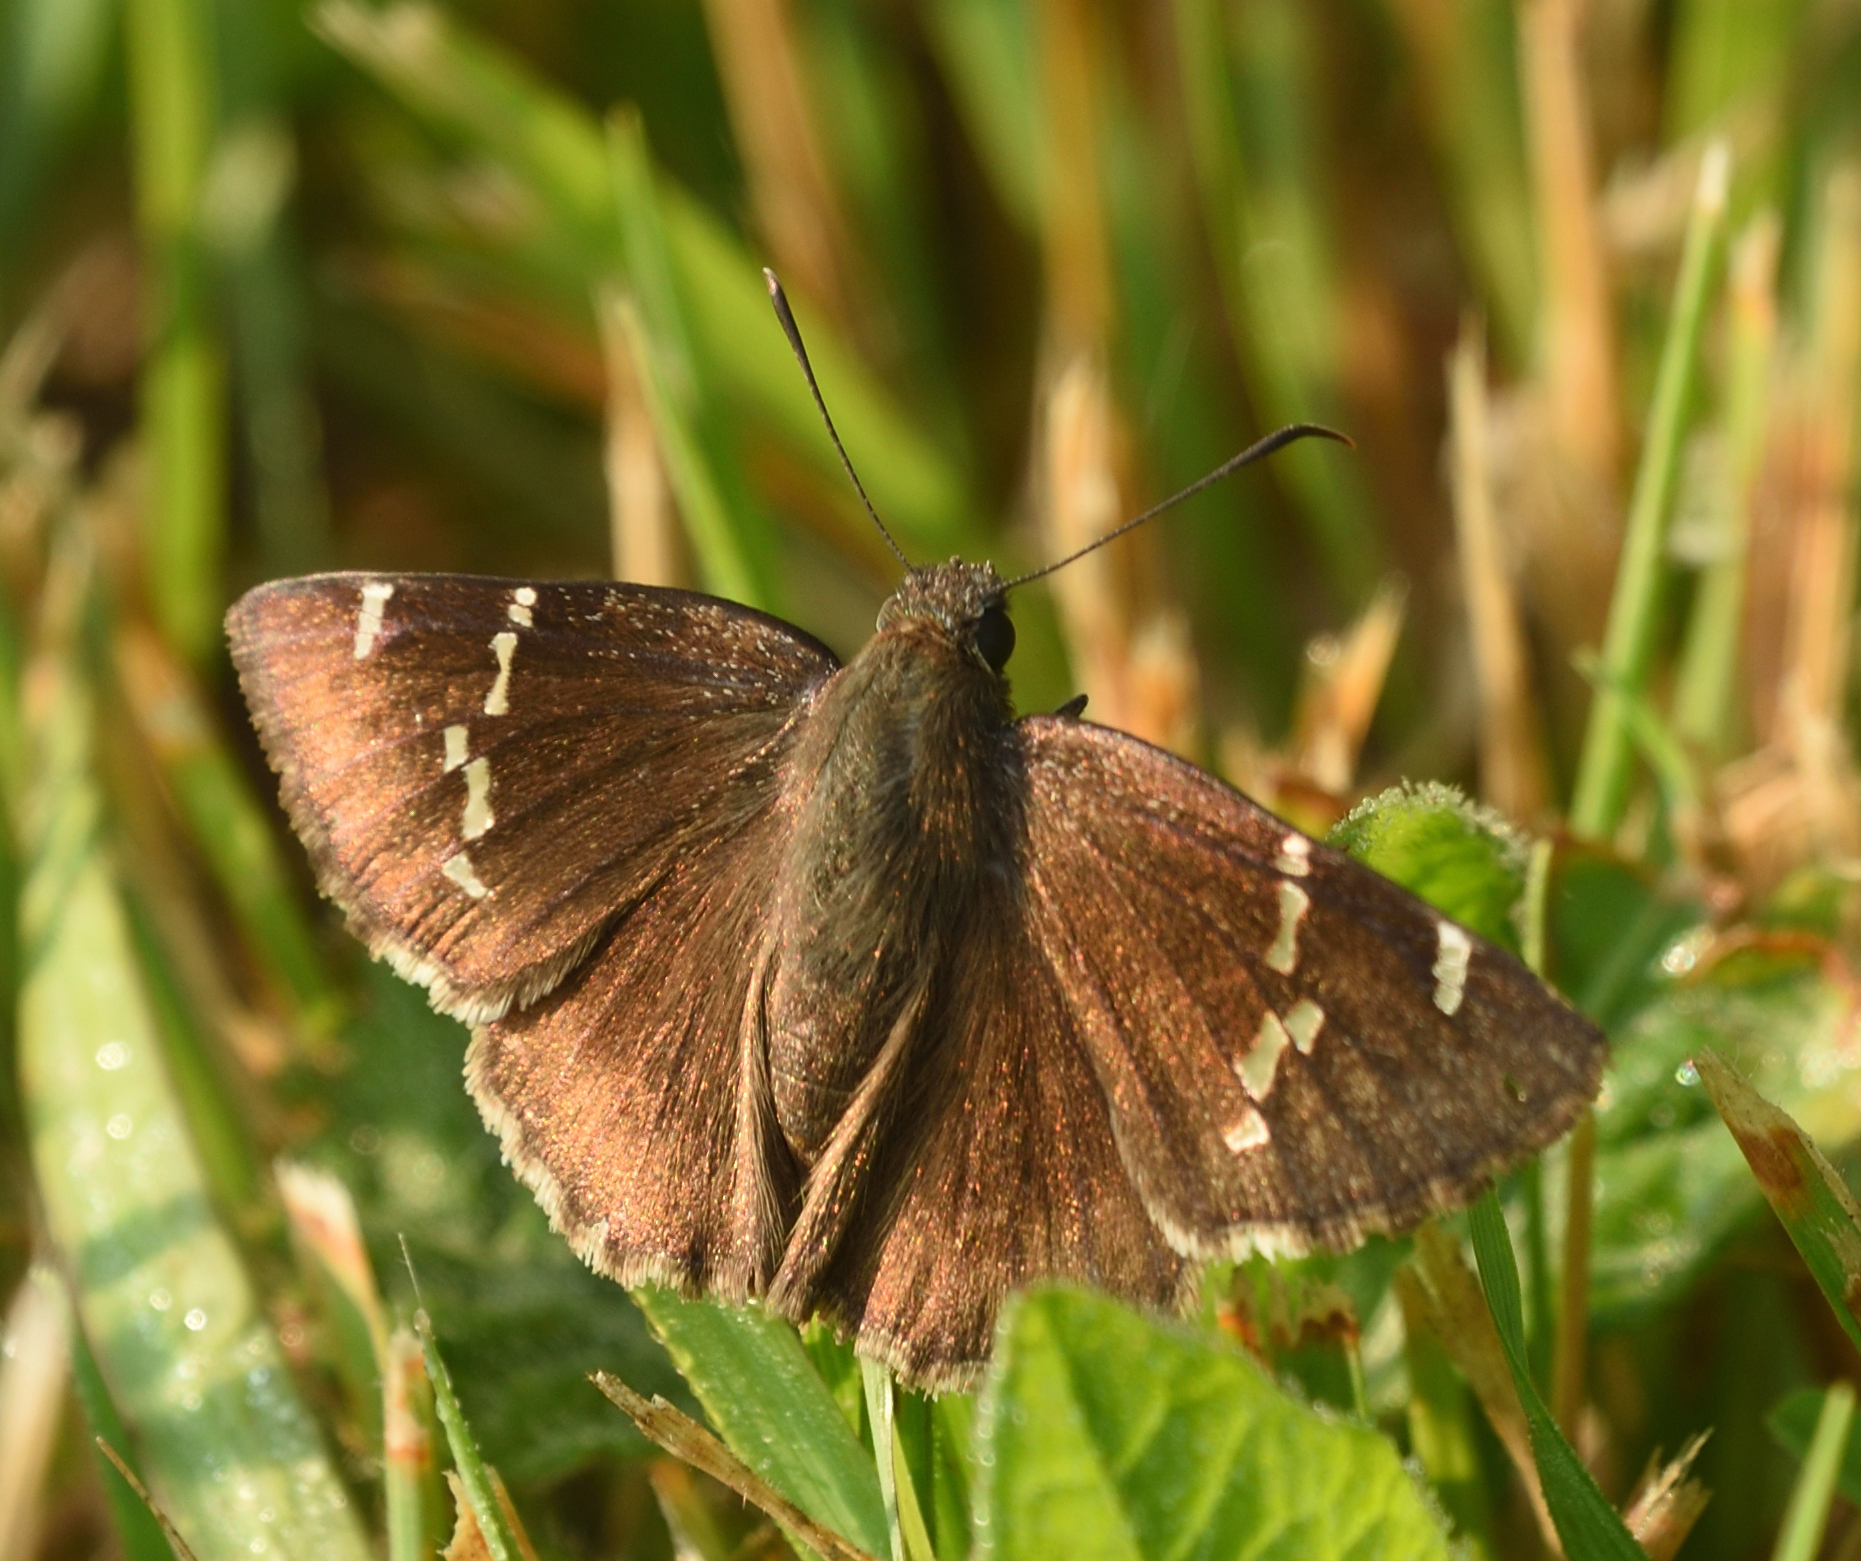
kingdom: Animalia
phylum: Arthropoda
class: Insecta
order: Lepidoptera
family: Hesperiidae
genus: Thorybes
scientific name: Thorybes daunus
